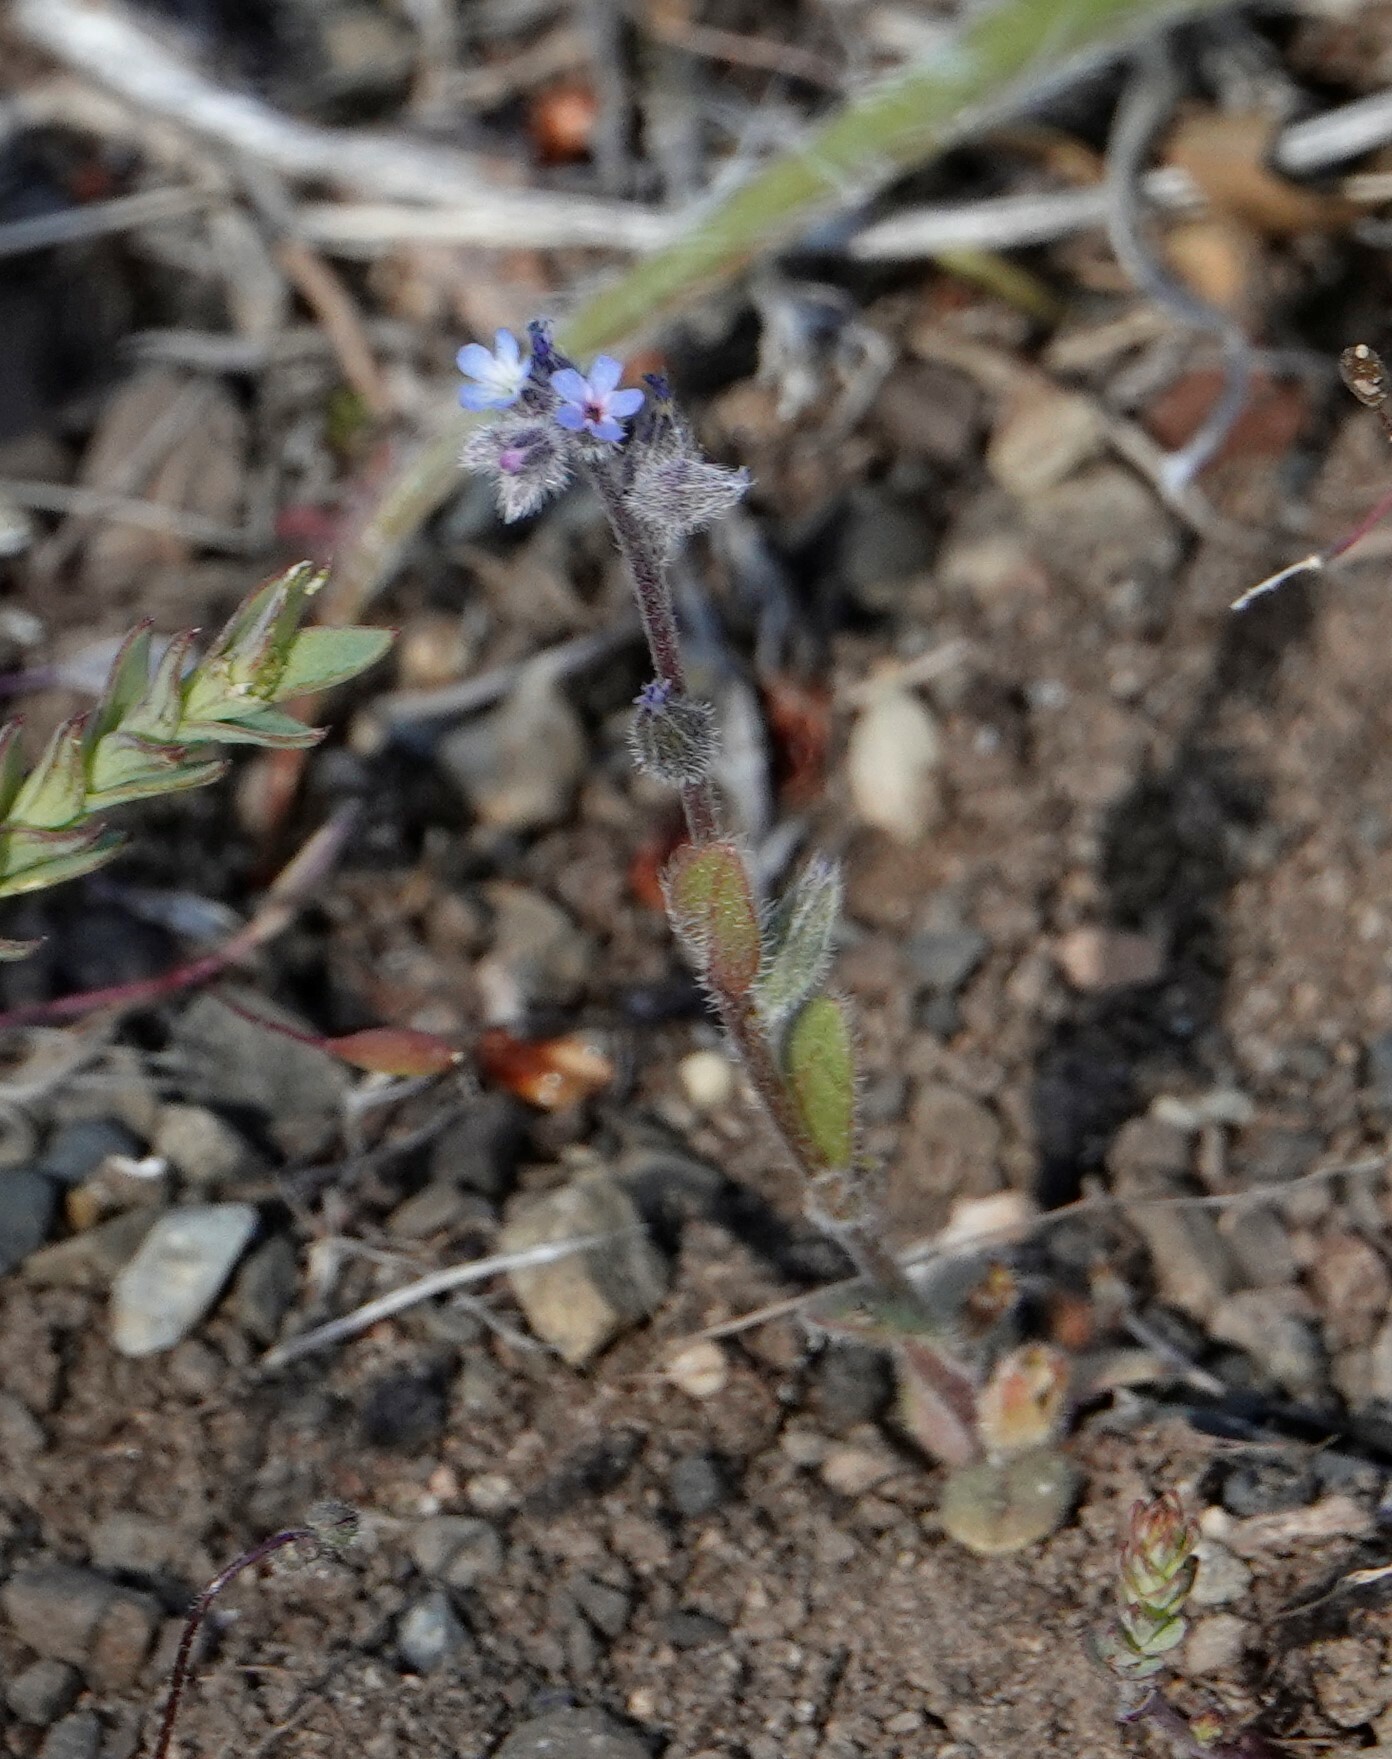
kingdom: Plantae
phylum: Tracheophyta
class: Magnoliopsida
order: Boraginales
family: Boraginaceae
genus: Myosotis
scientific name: Myosotis stricta
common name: Strict forget-me-not
